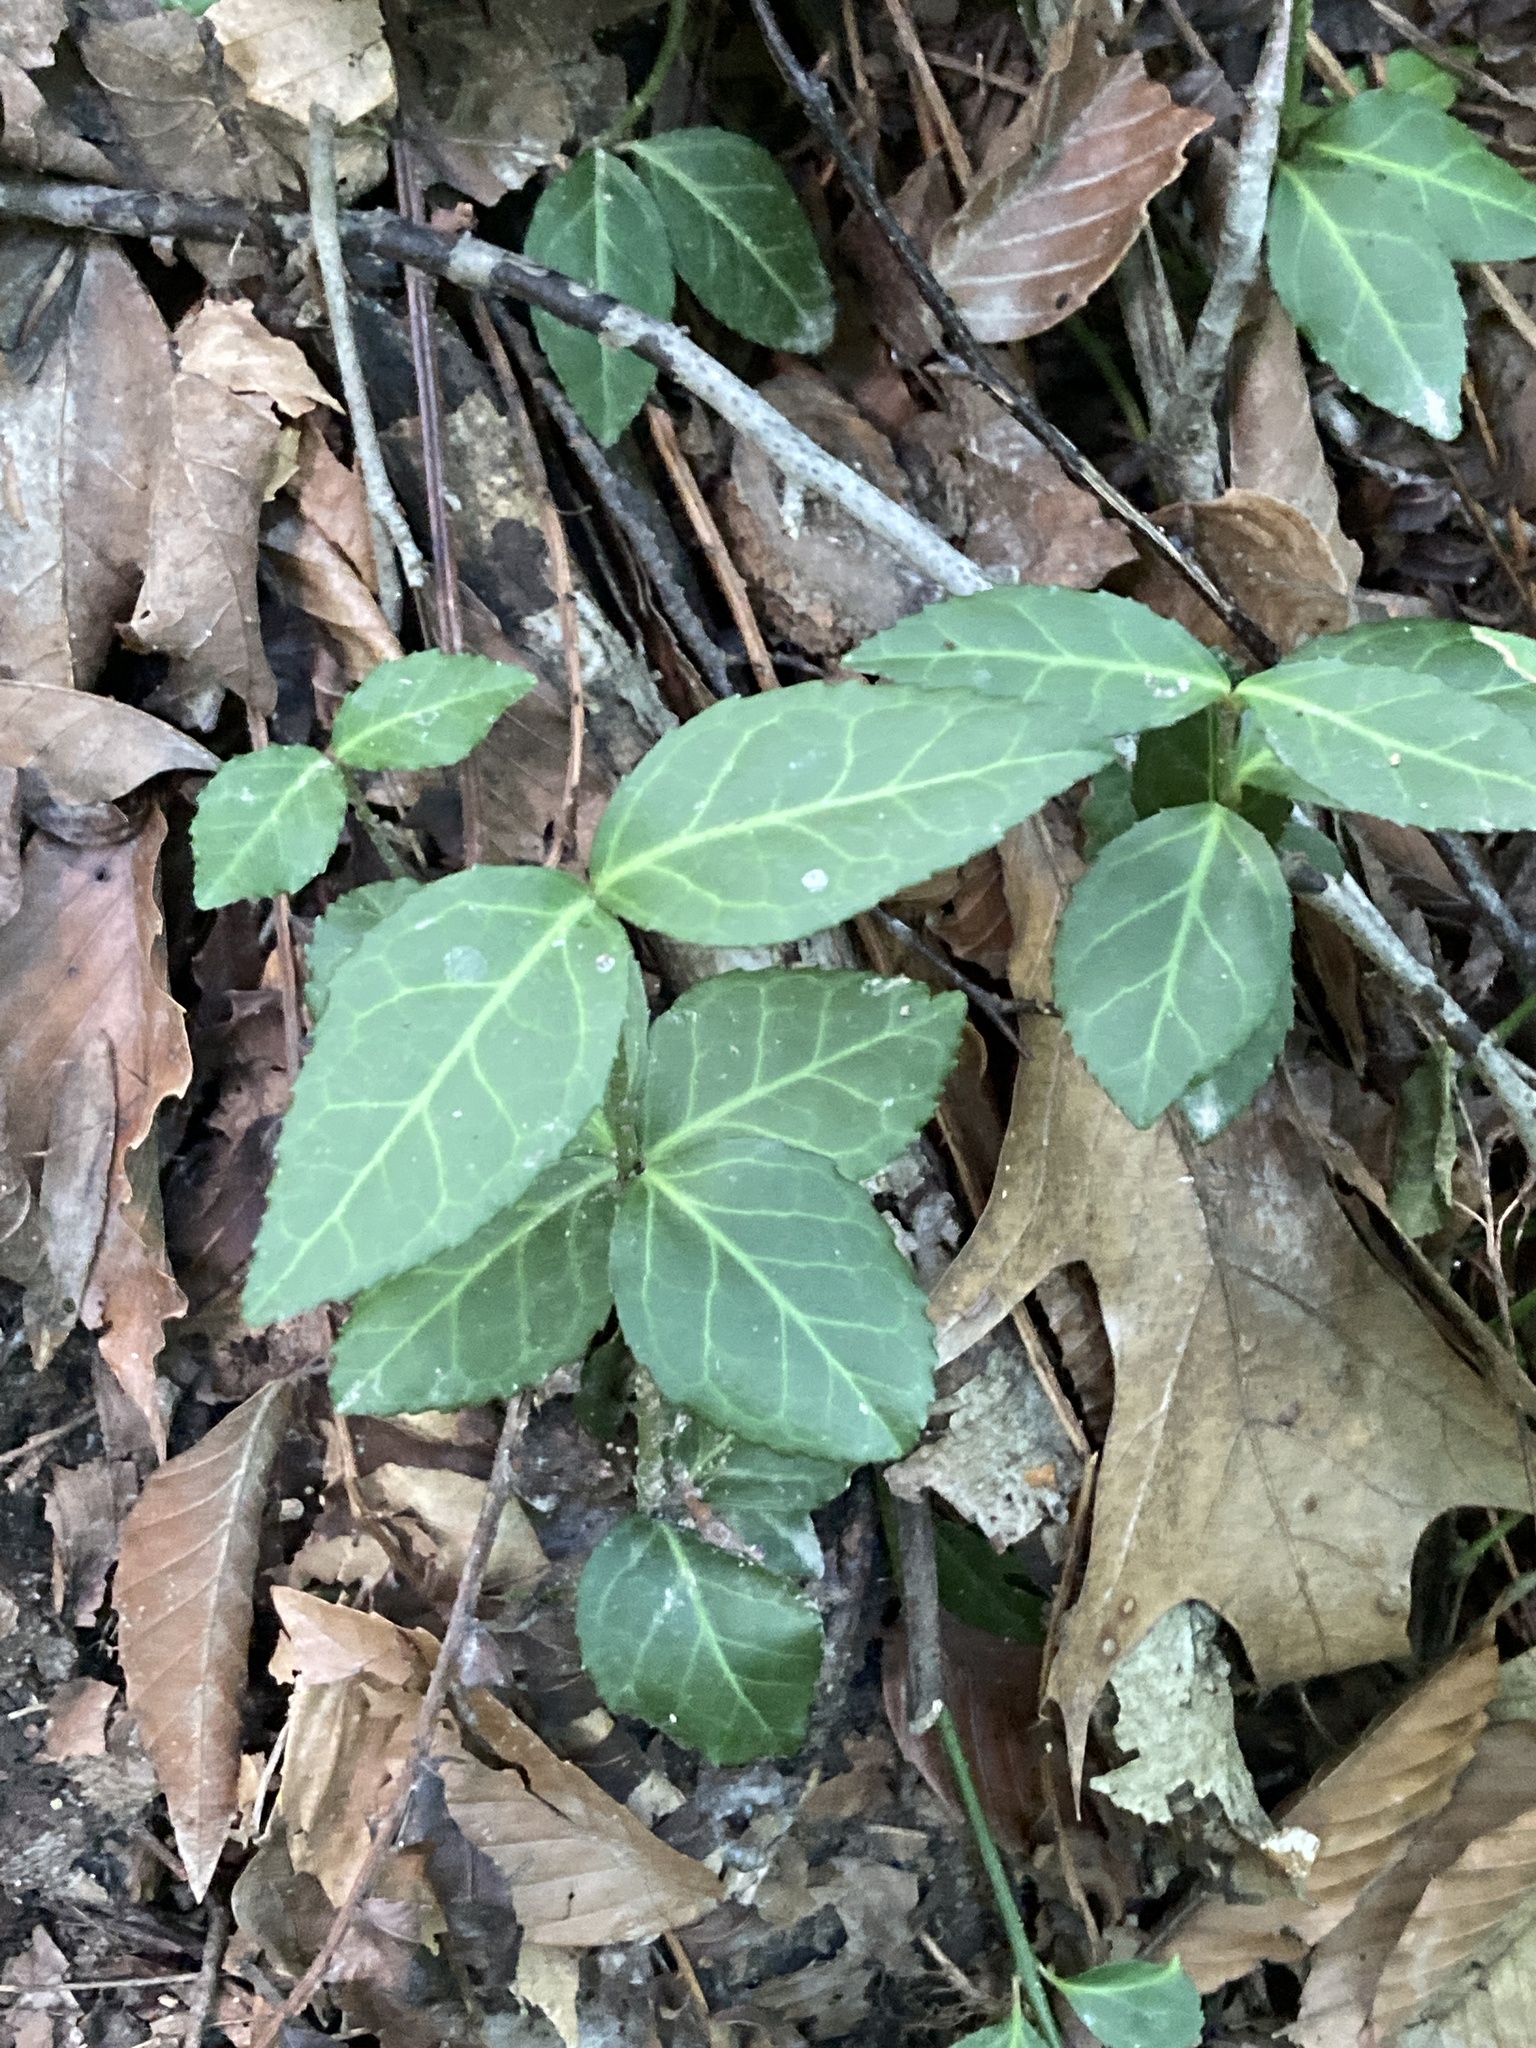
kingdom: Plantae
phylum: Tracheophyta
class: Magnoliopsida
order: Celastrales
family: Celastraceae
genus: Euonymus
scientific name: Euonymus fortunei
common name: Climbing euonymus
